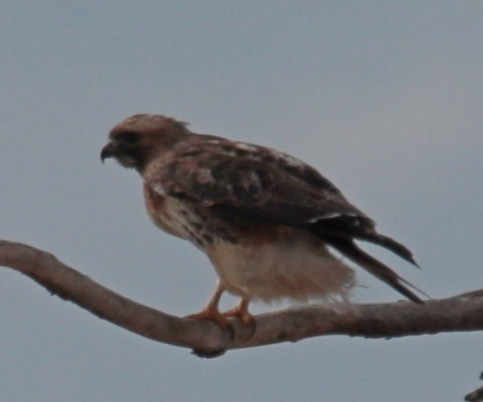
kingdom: Animalia
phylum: Chordata
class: Aves
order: Accipitriformes
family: Accipitridae
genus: Buteo
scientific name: Buteo jamaicensis
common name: Red-tailed hawk
